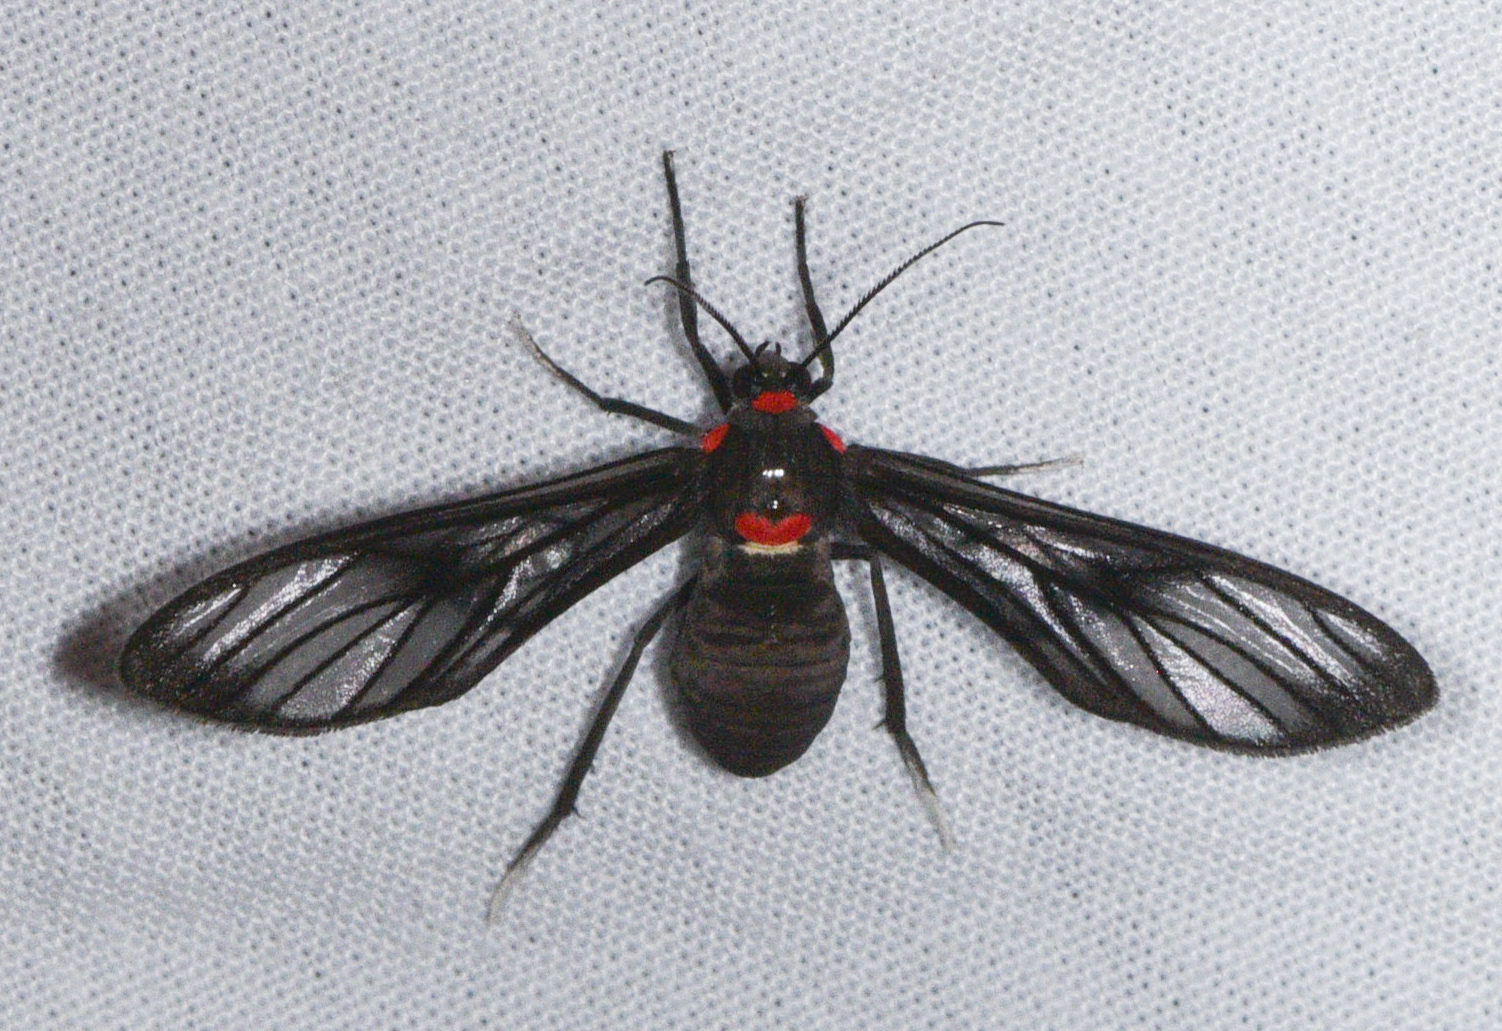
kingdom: Animalia
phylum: Arthropoda
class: Insecta
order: Lepidoptera
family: Erebidae
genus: Saurita
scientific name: Saurita phoenicosticta
